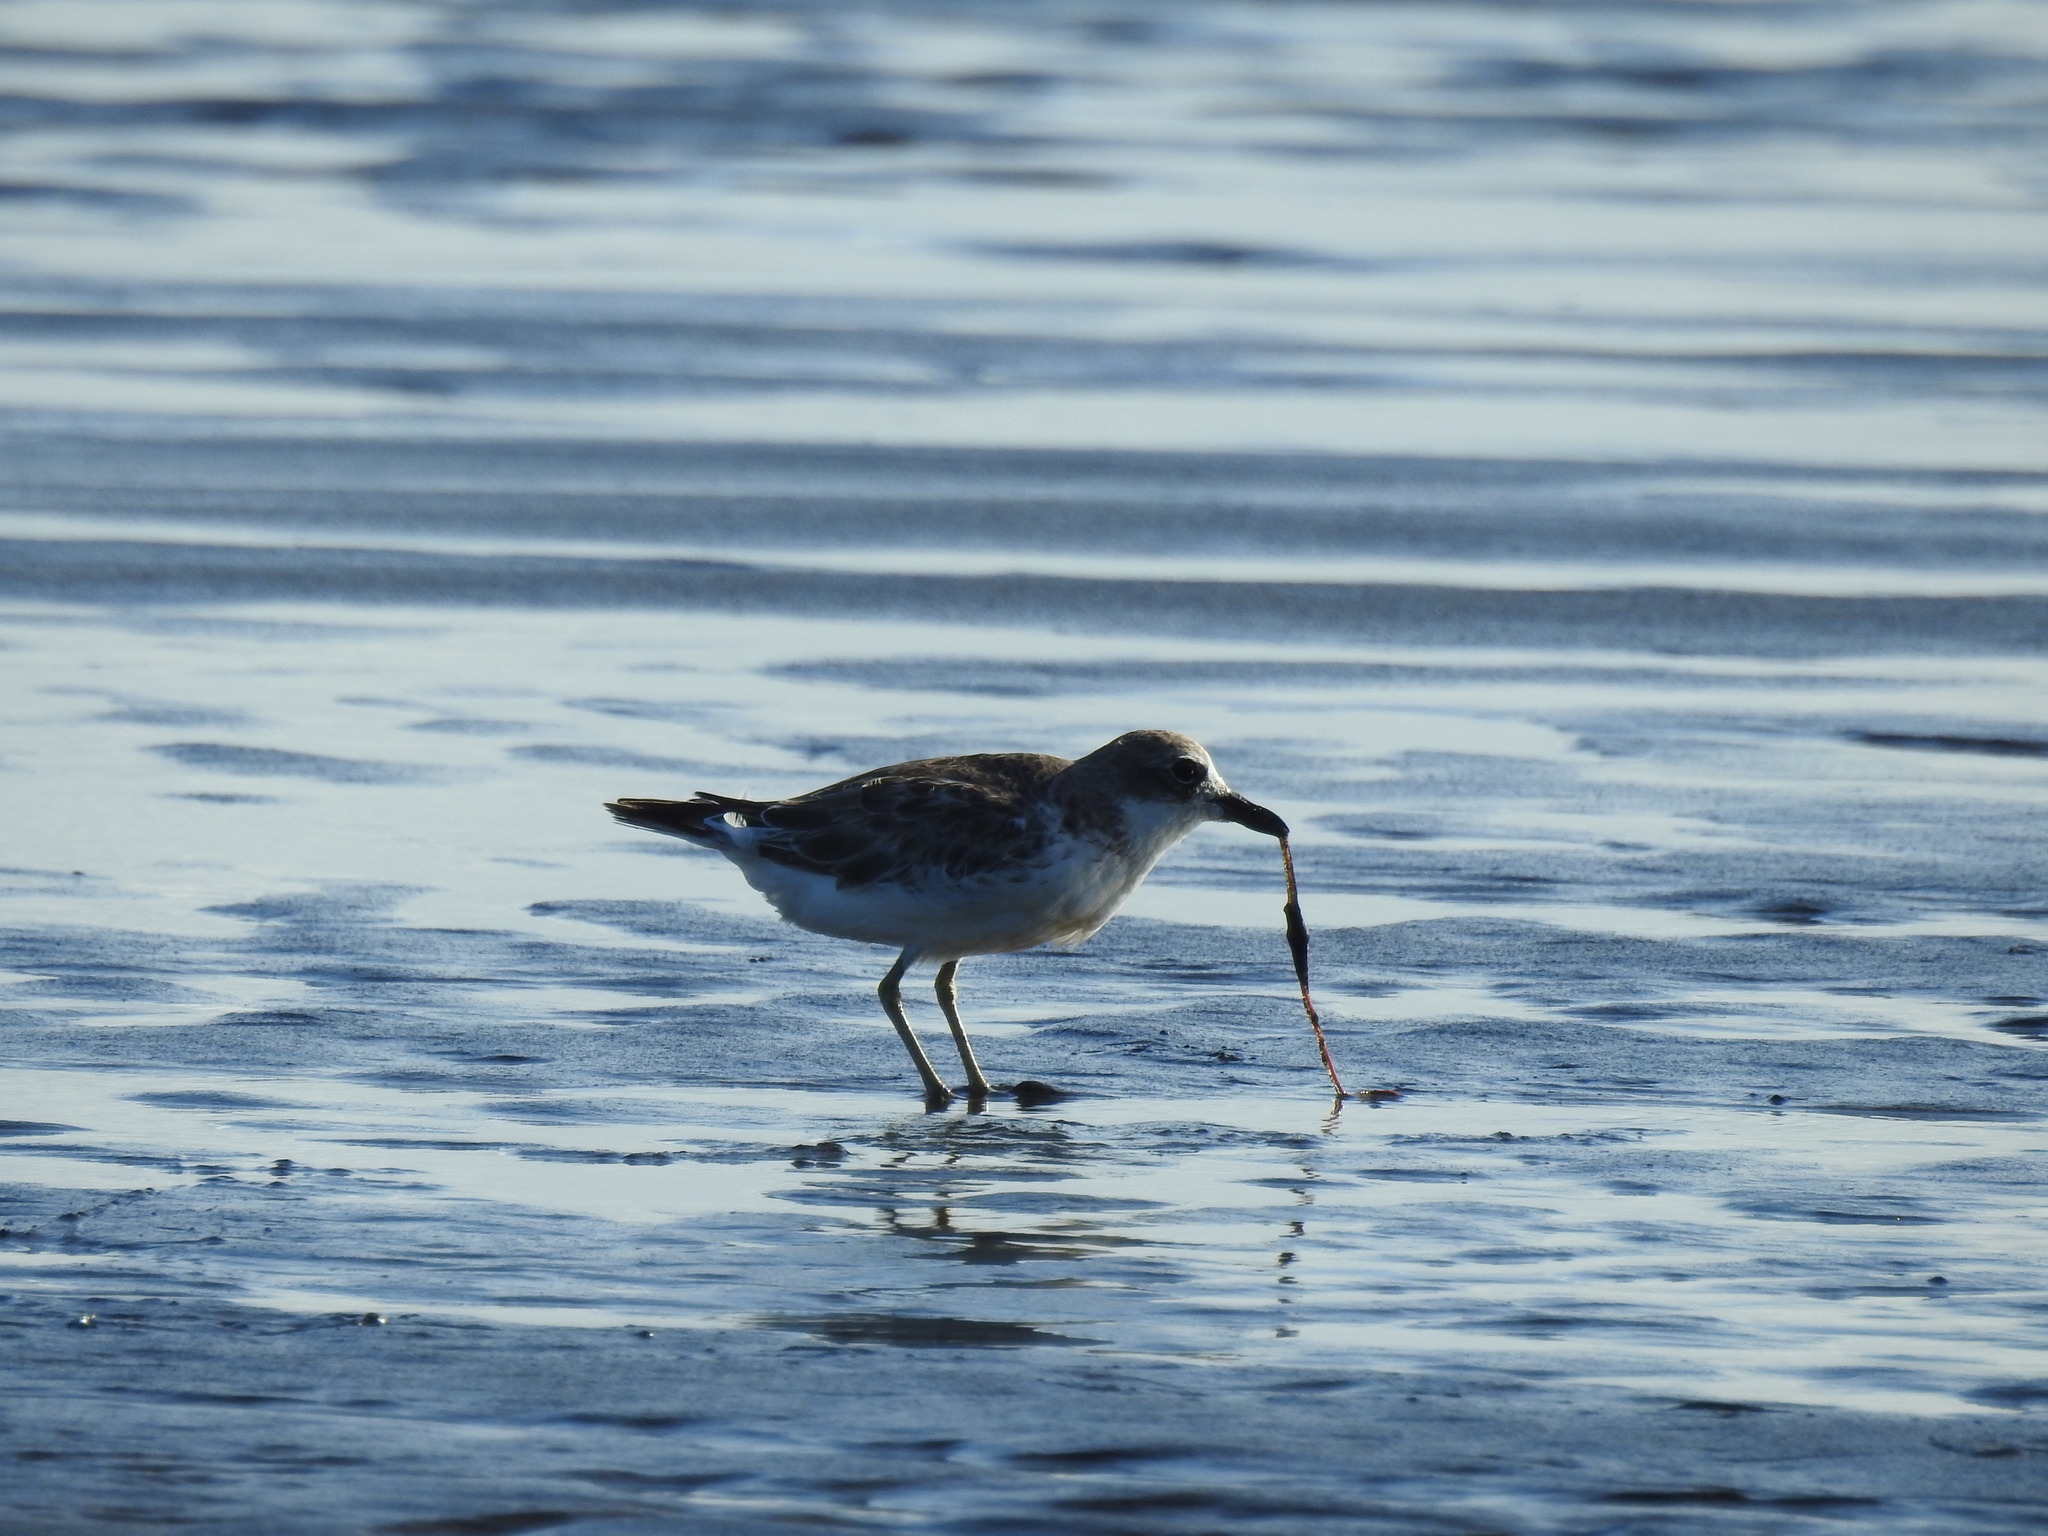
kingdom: Animalia
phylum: Chordata
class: Aves
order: Charadriiformes
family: Charadriidae
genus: Anarhynchus
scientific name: Anarhynchus
